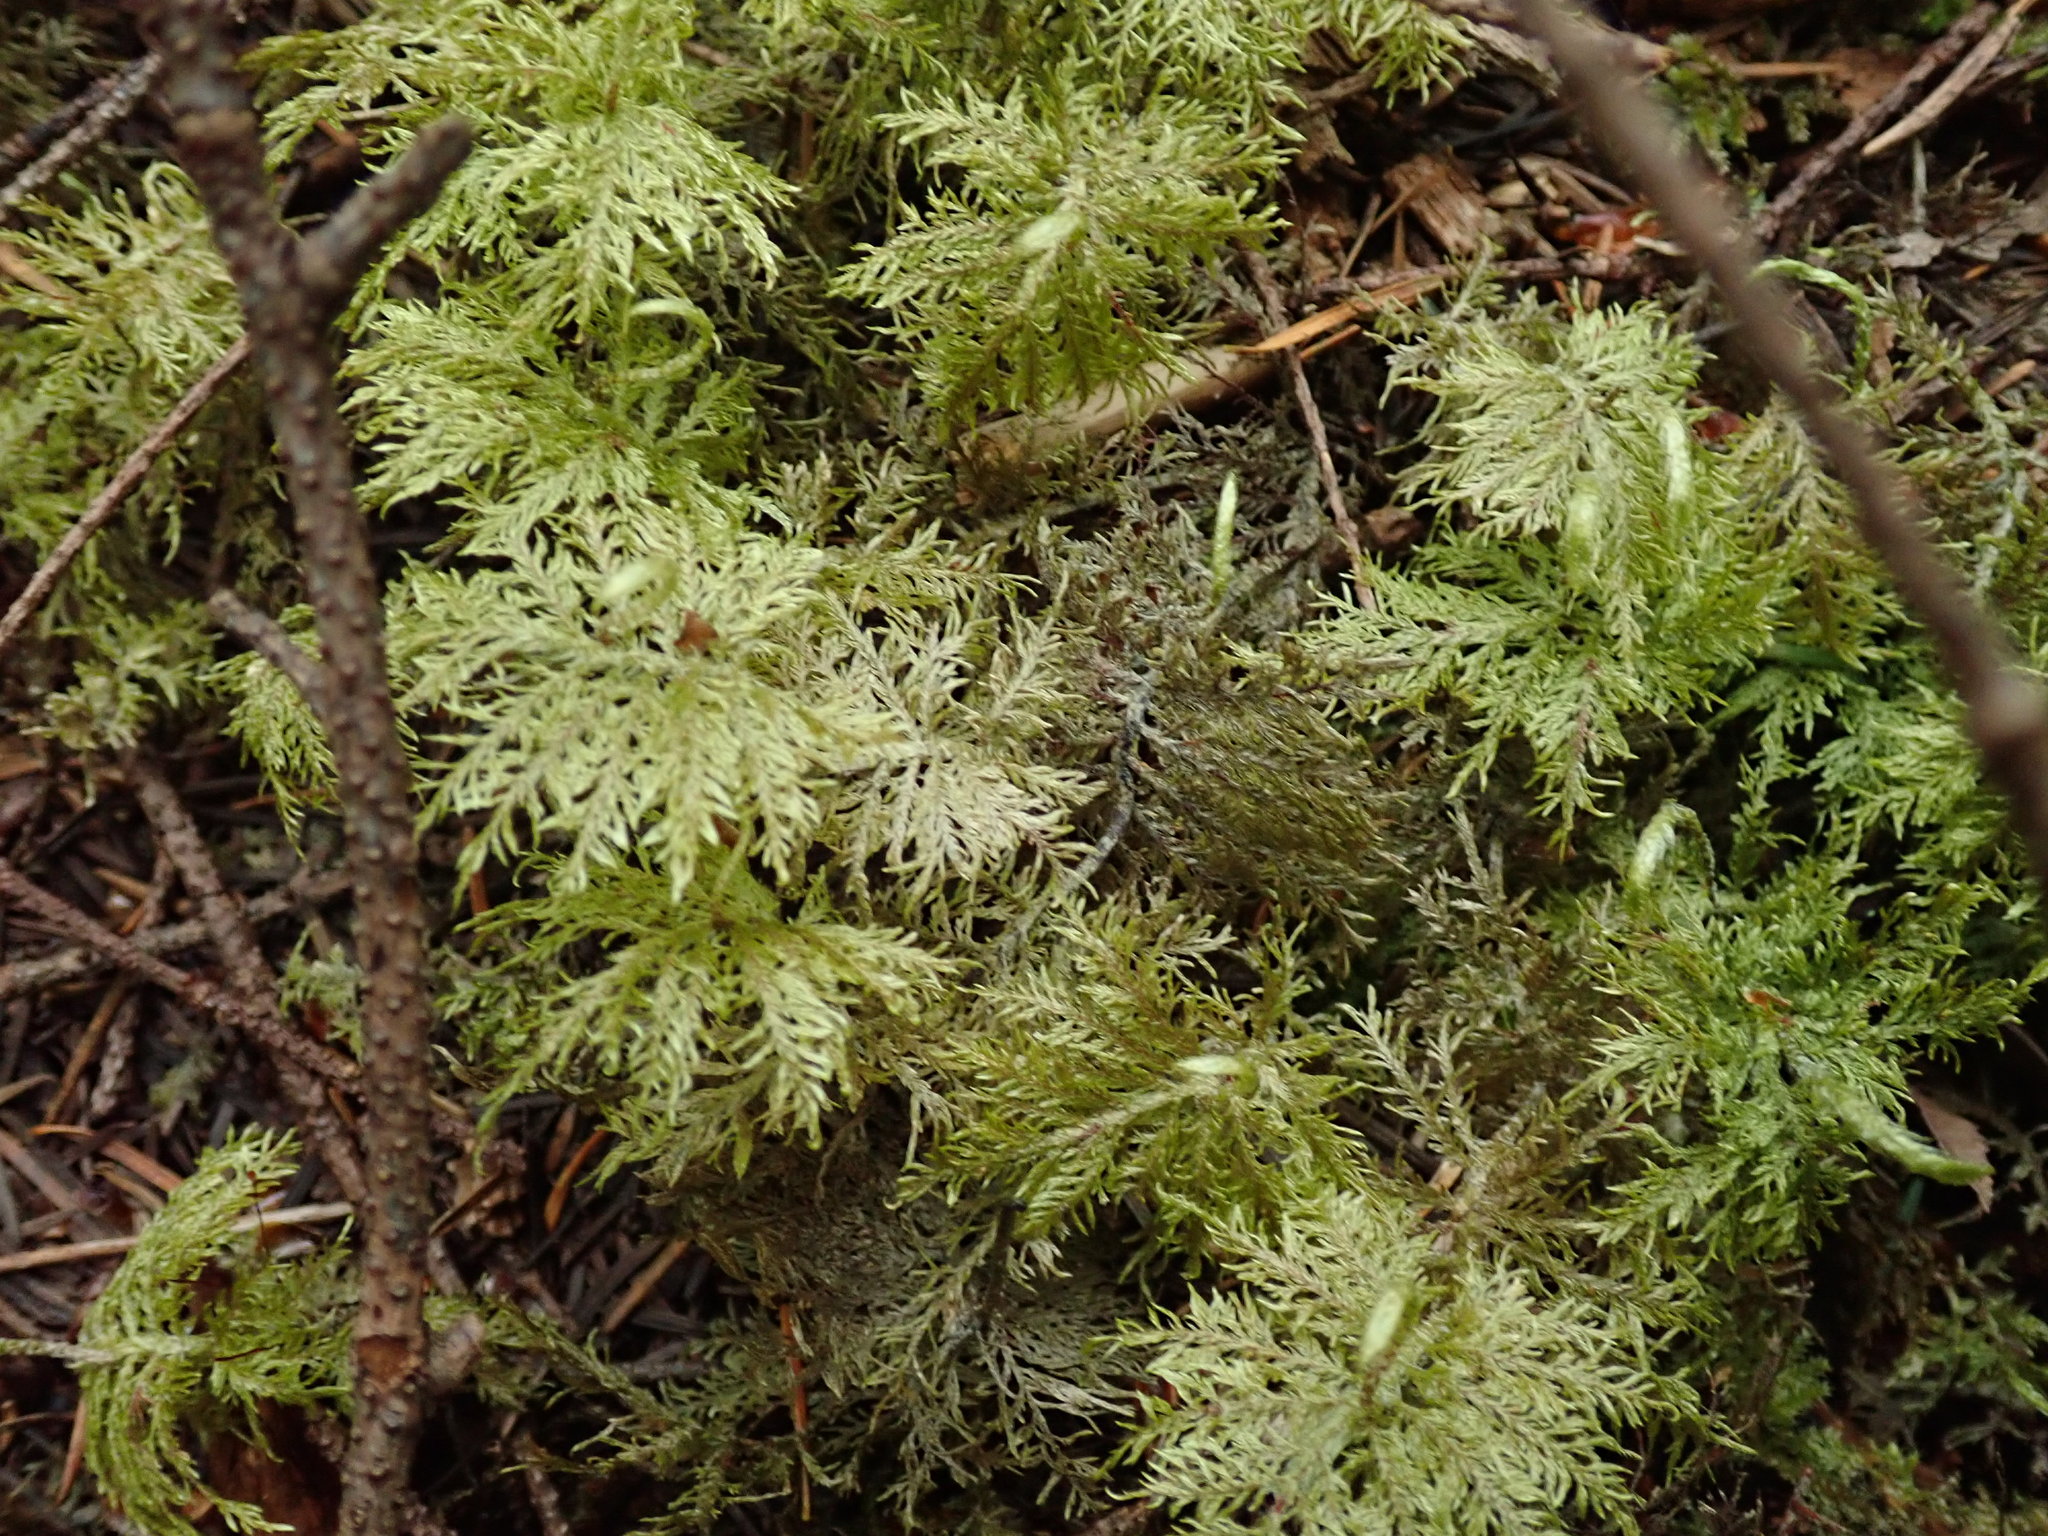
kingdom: Plantae
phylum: Bryophyta
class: Bryopsida
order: Hypnales
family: Hylocomiaceae
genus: Hylocomium
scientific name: Hylocomium splendens
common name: Stairstep moss
